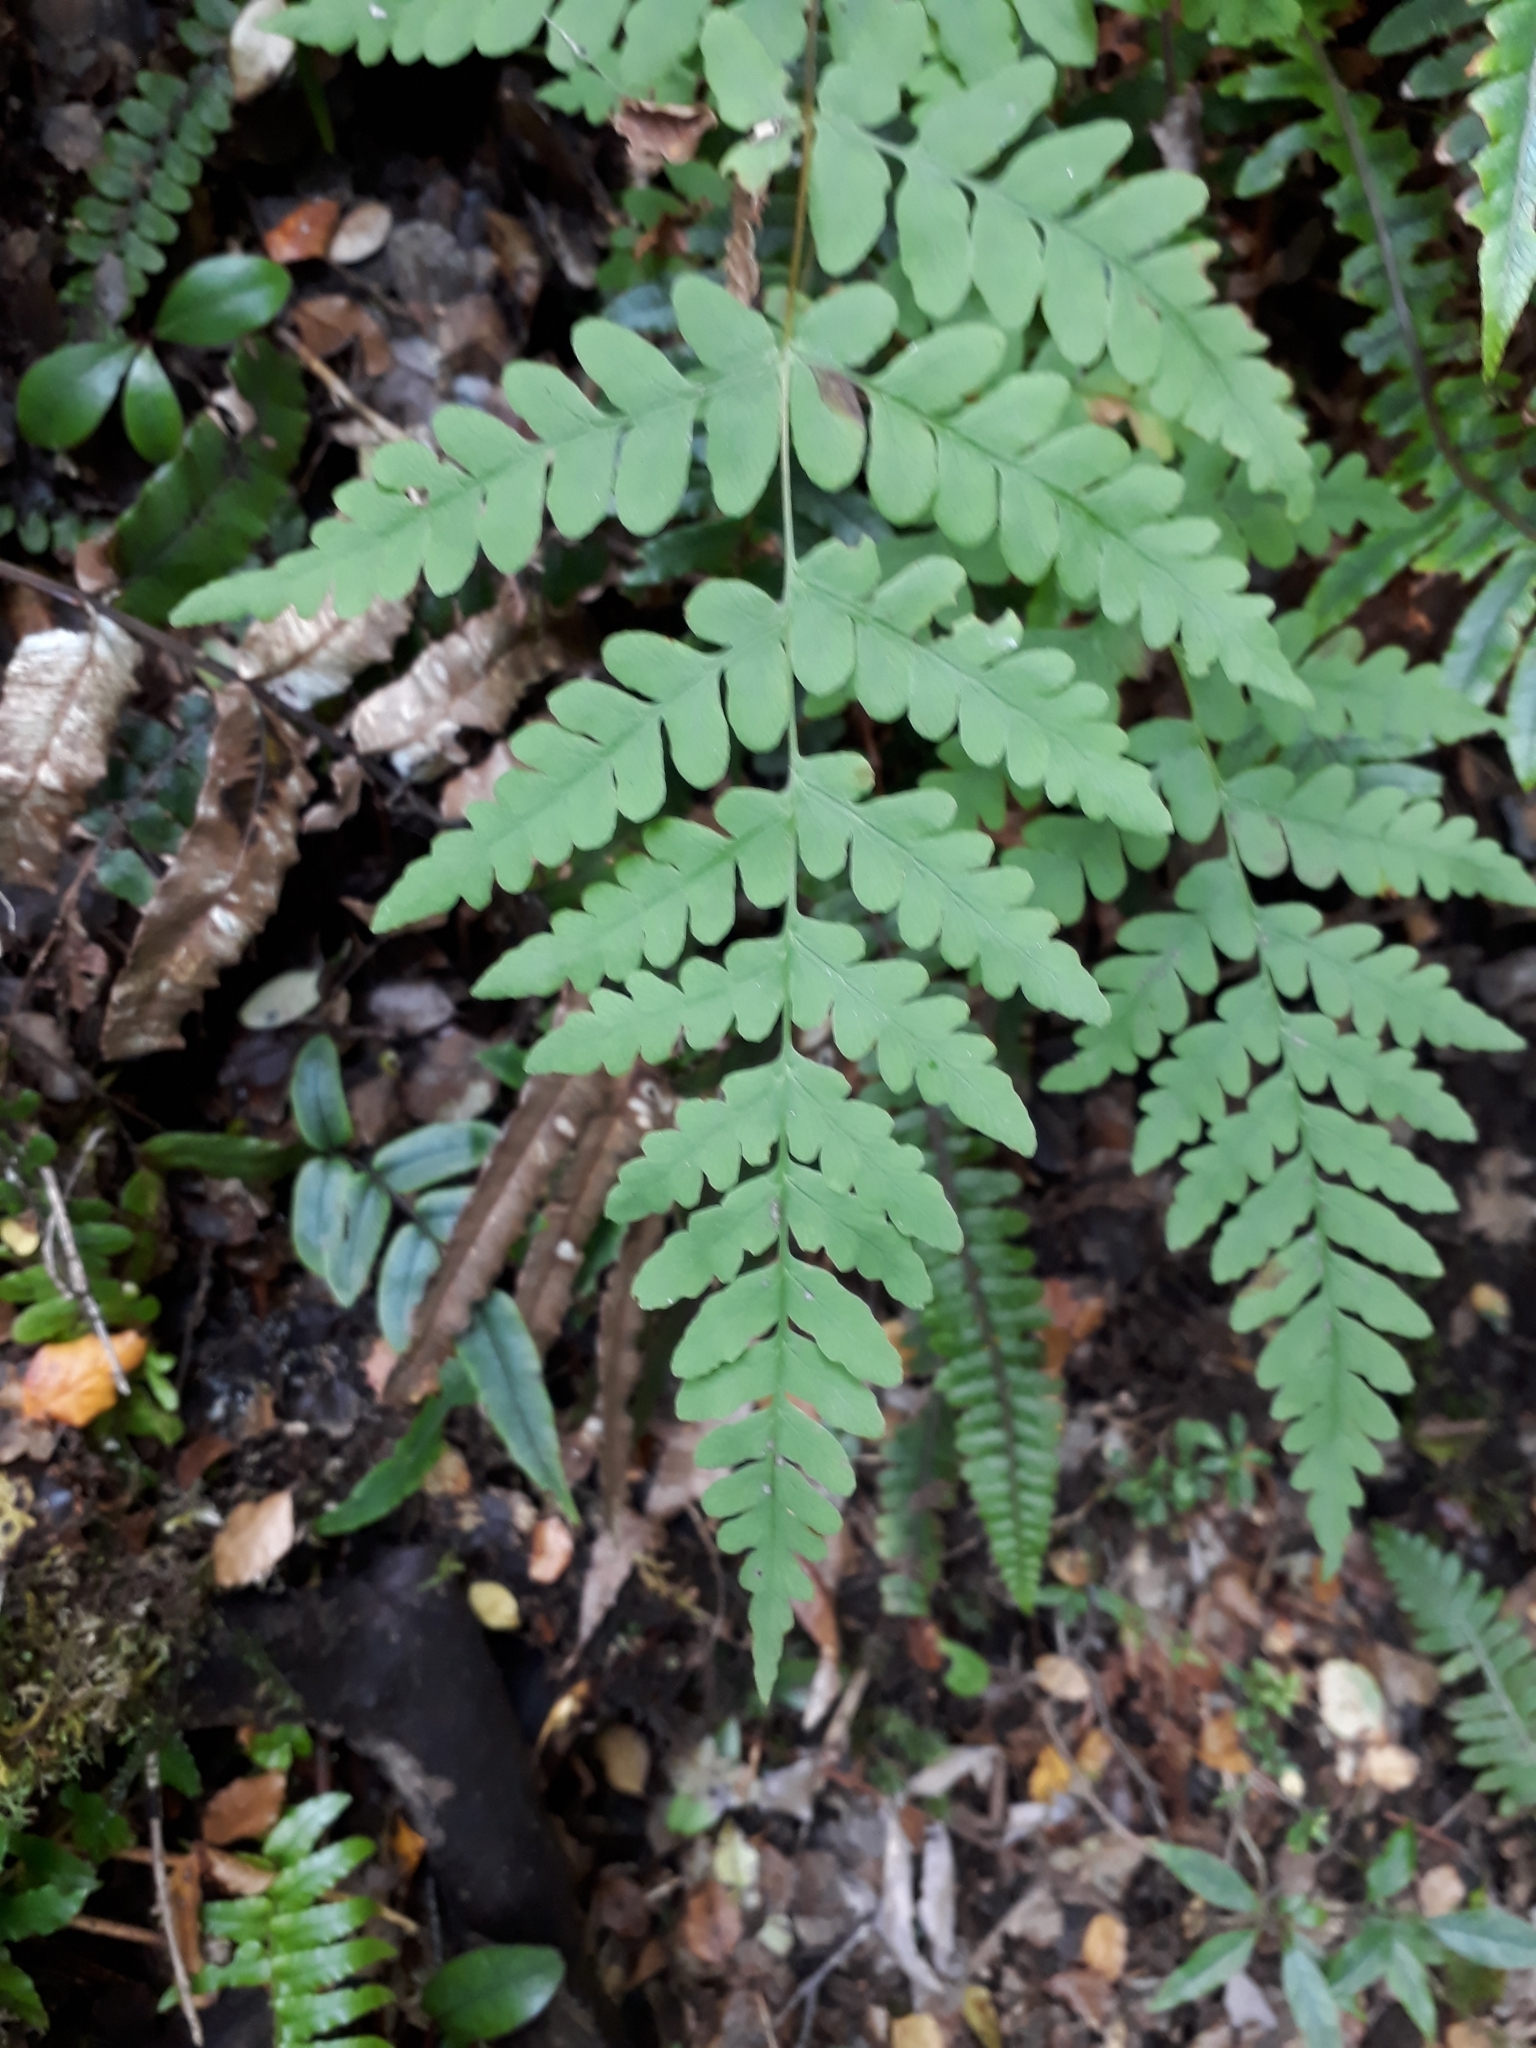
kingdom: Plantae
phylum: Tracheophyta
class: Polypodiopsida
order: Polypodiales
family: Dennstaedtiaceae
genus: Histiopteris
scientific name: Histiopteris incisa
